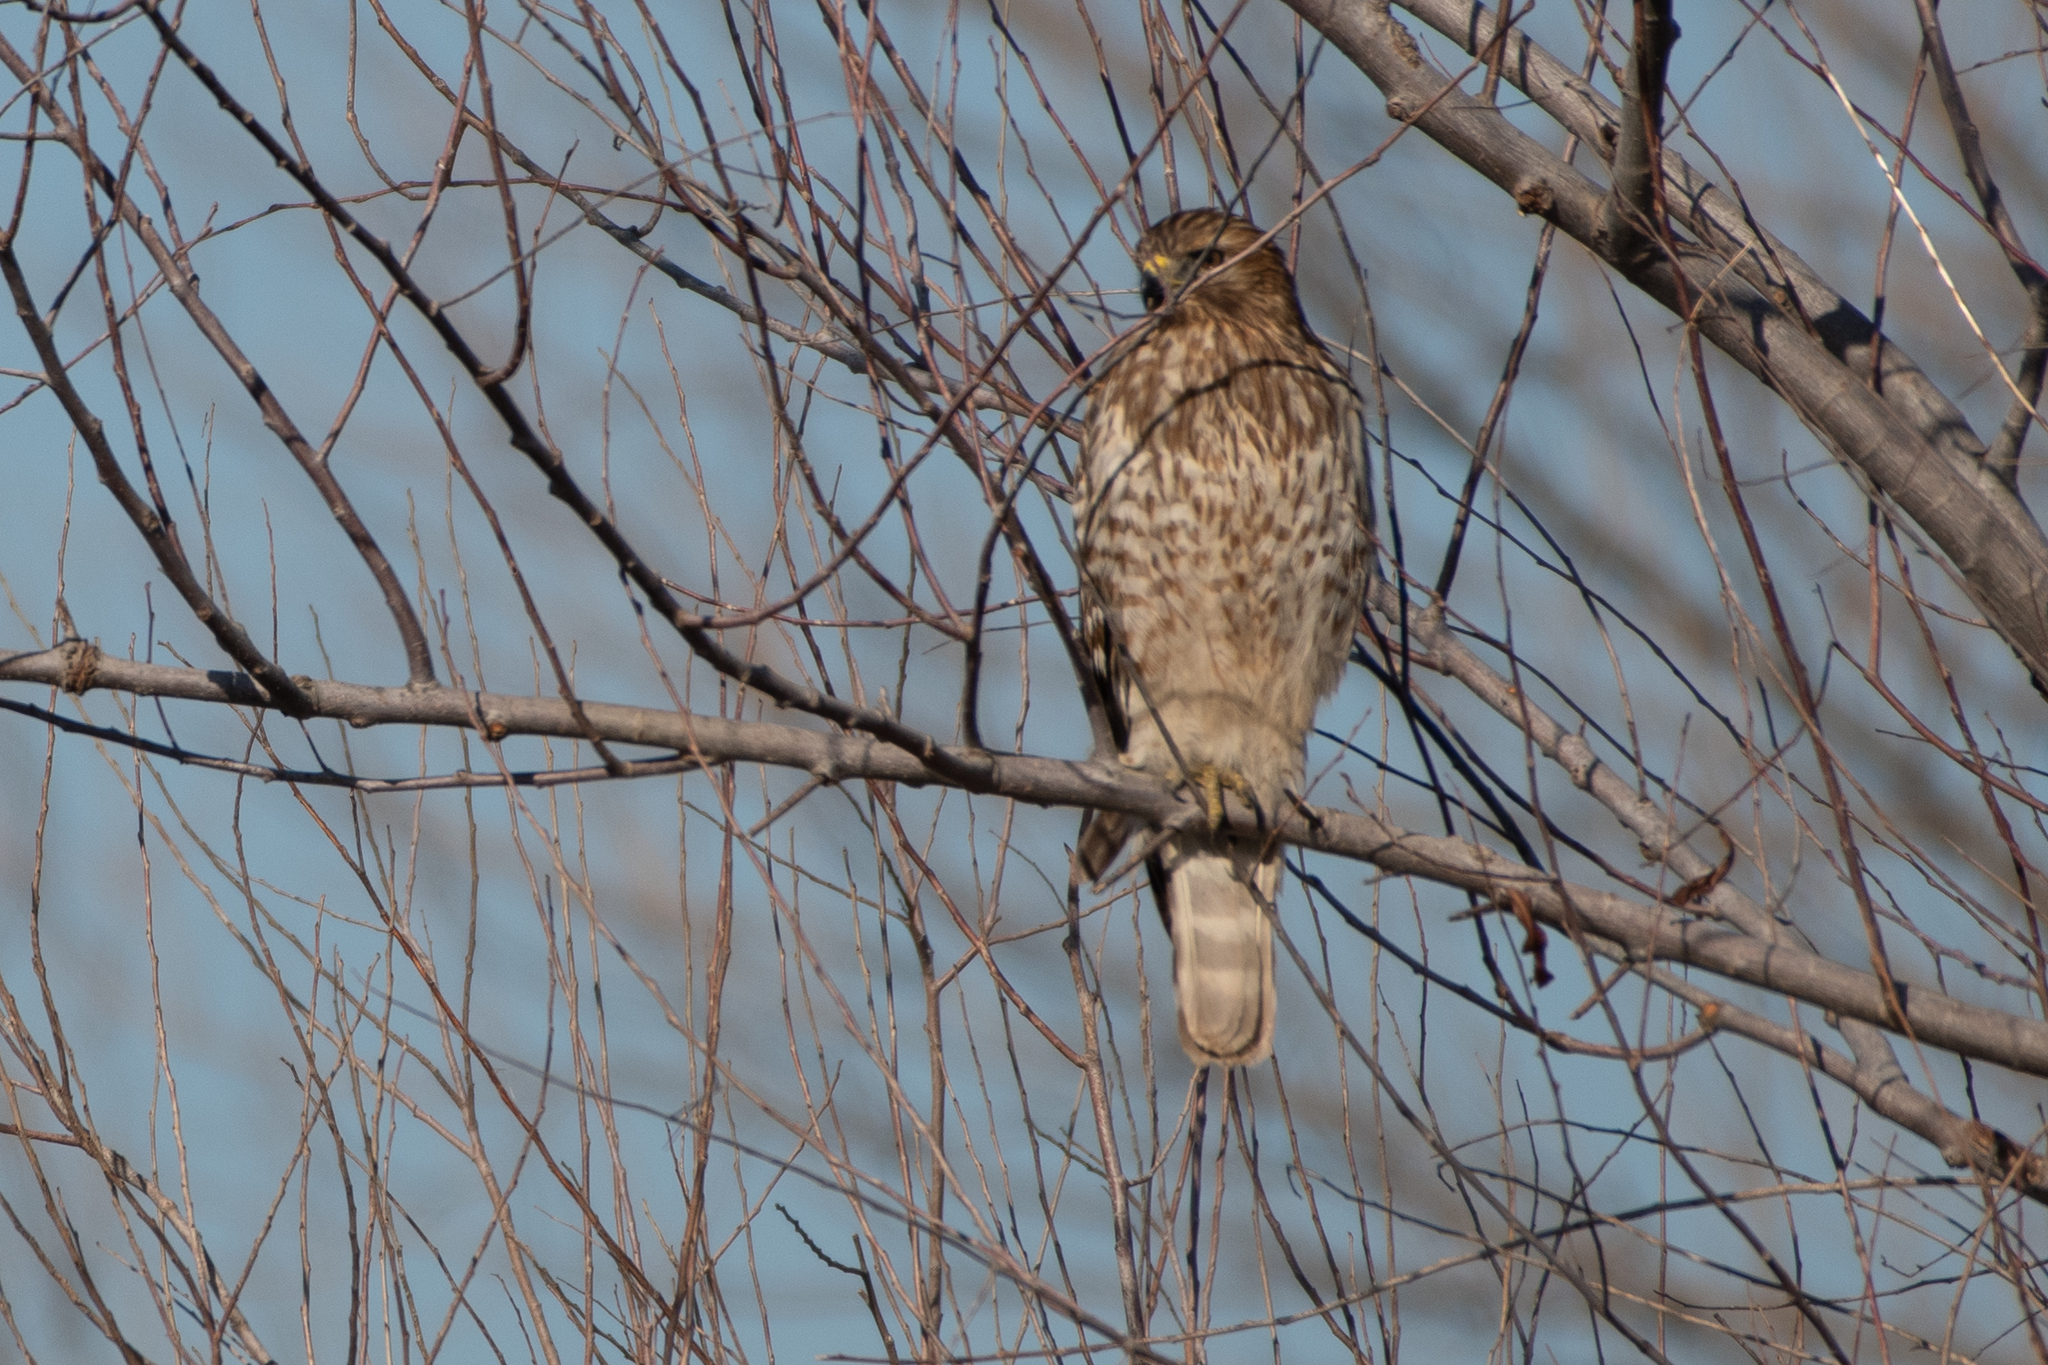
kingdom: Animalia
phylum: Chordata
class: Aves
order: Accipitriformes
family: Accipitridae
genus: Buteo
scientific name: Buteo lineatus
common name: Red-shouldered hawk
